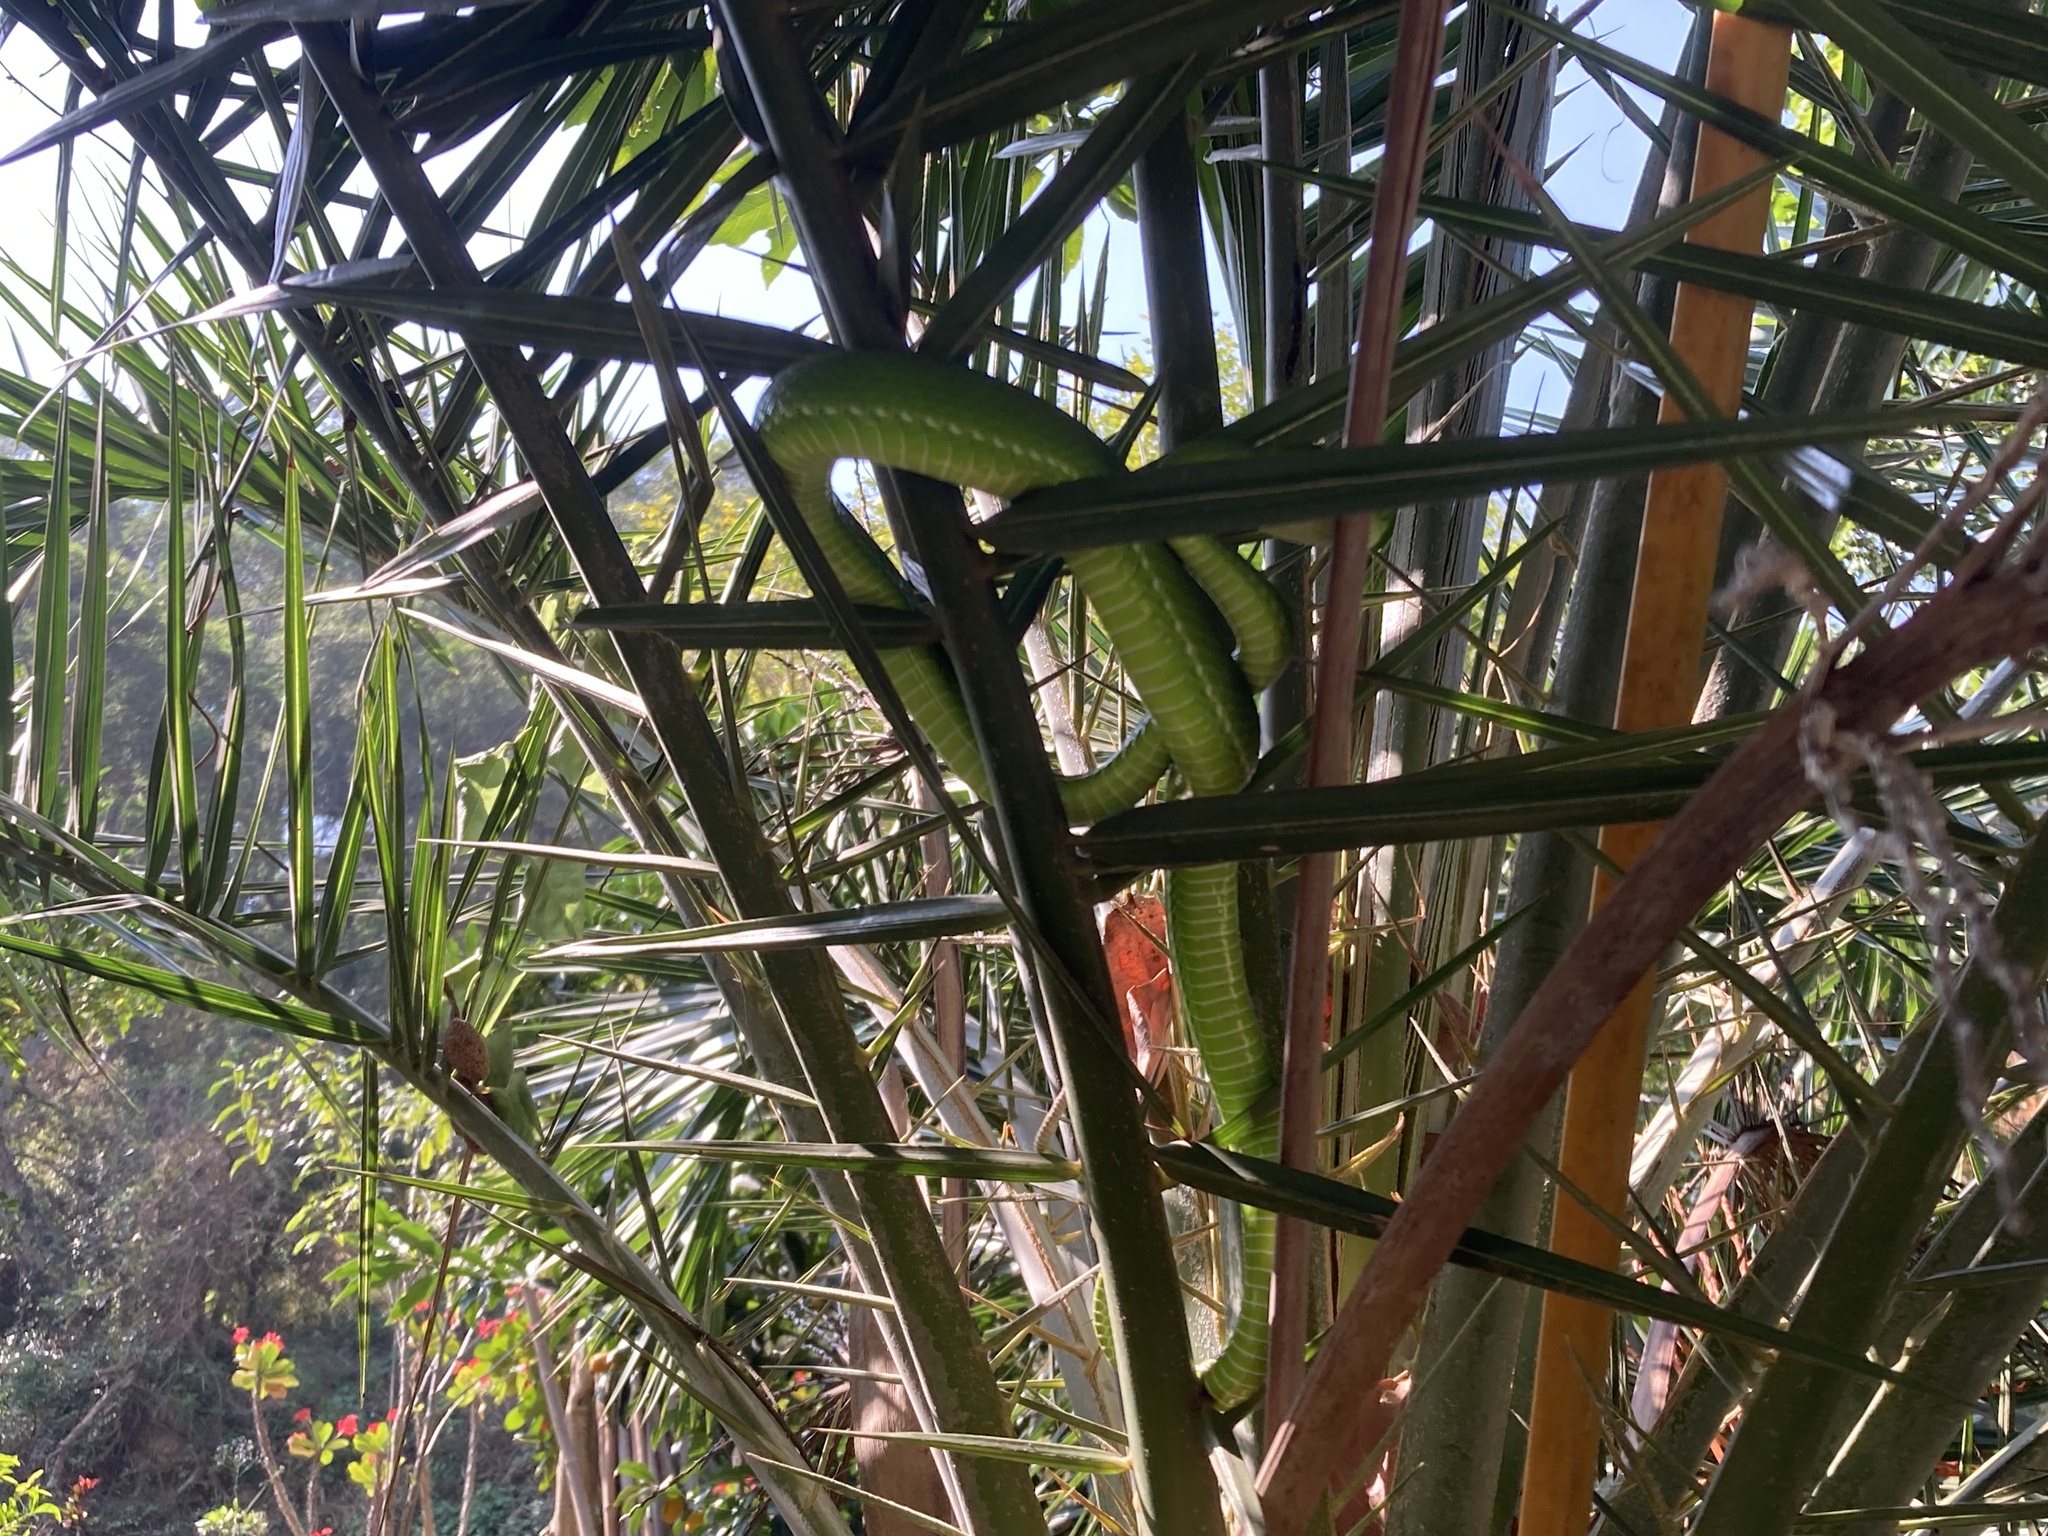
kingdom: Animalia
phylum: Chordata
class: Squamata
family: Viperidae
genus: Trimeresurus
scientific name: Trimeresurus stejnegeri
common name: Chen’s bamboo pit viper
